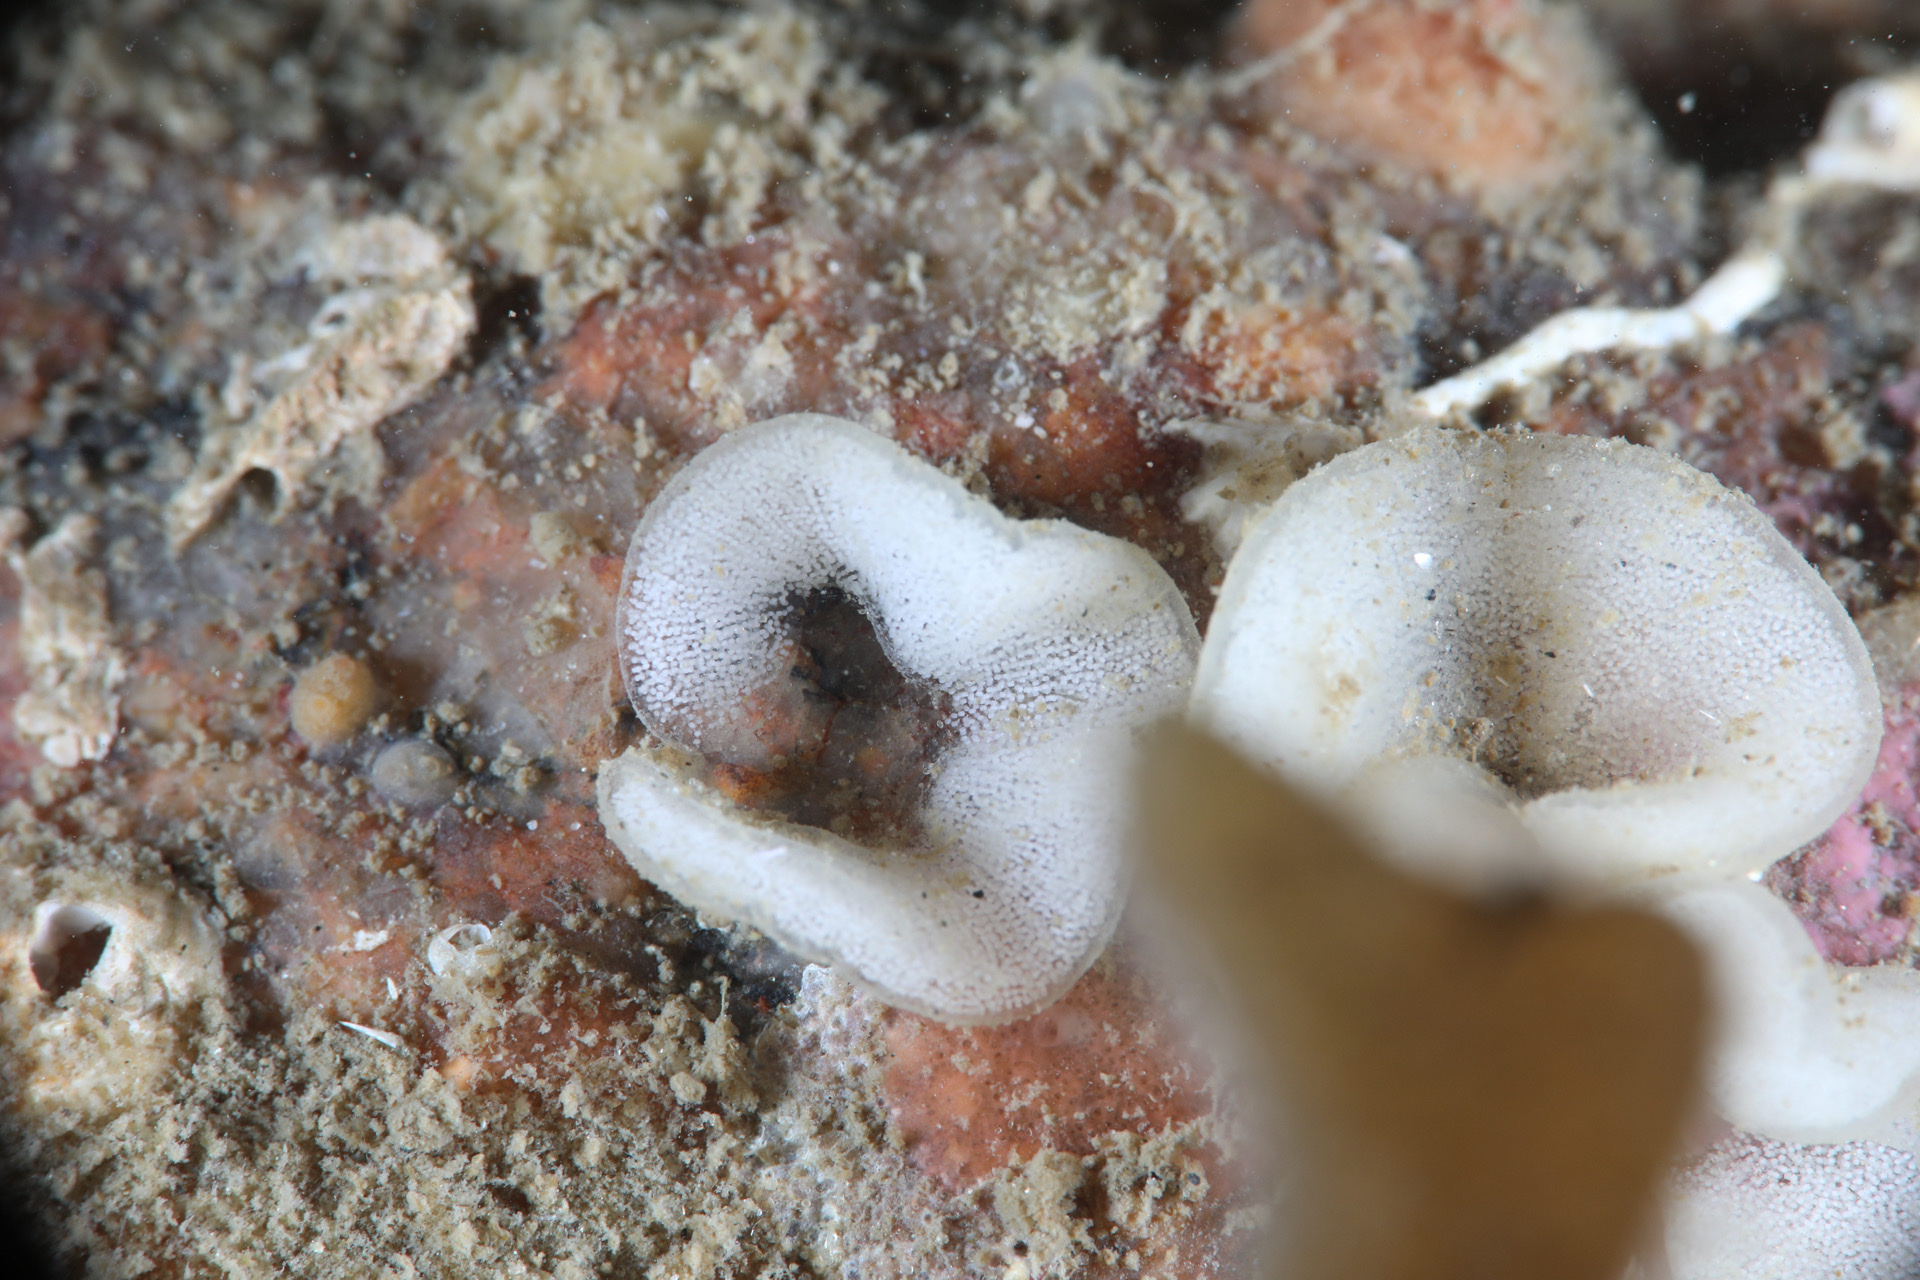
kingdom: Animalia
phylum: Mollusca
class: Gastropoda
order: Nudibranchia
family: Onchidorididae
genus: Onchidoris
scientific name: Onchidoris bilamellata
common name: Barnacle-eating onchidoris
